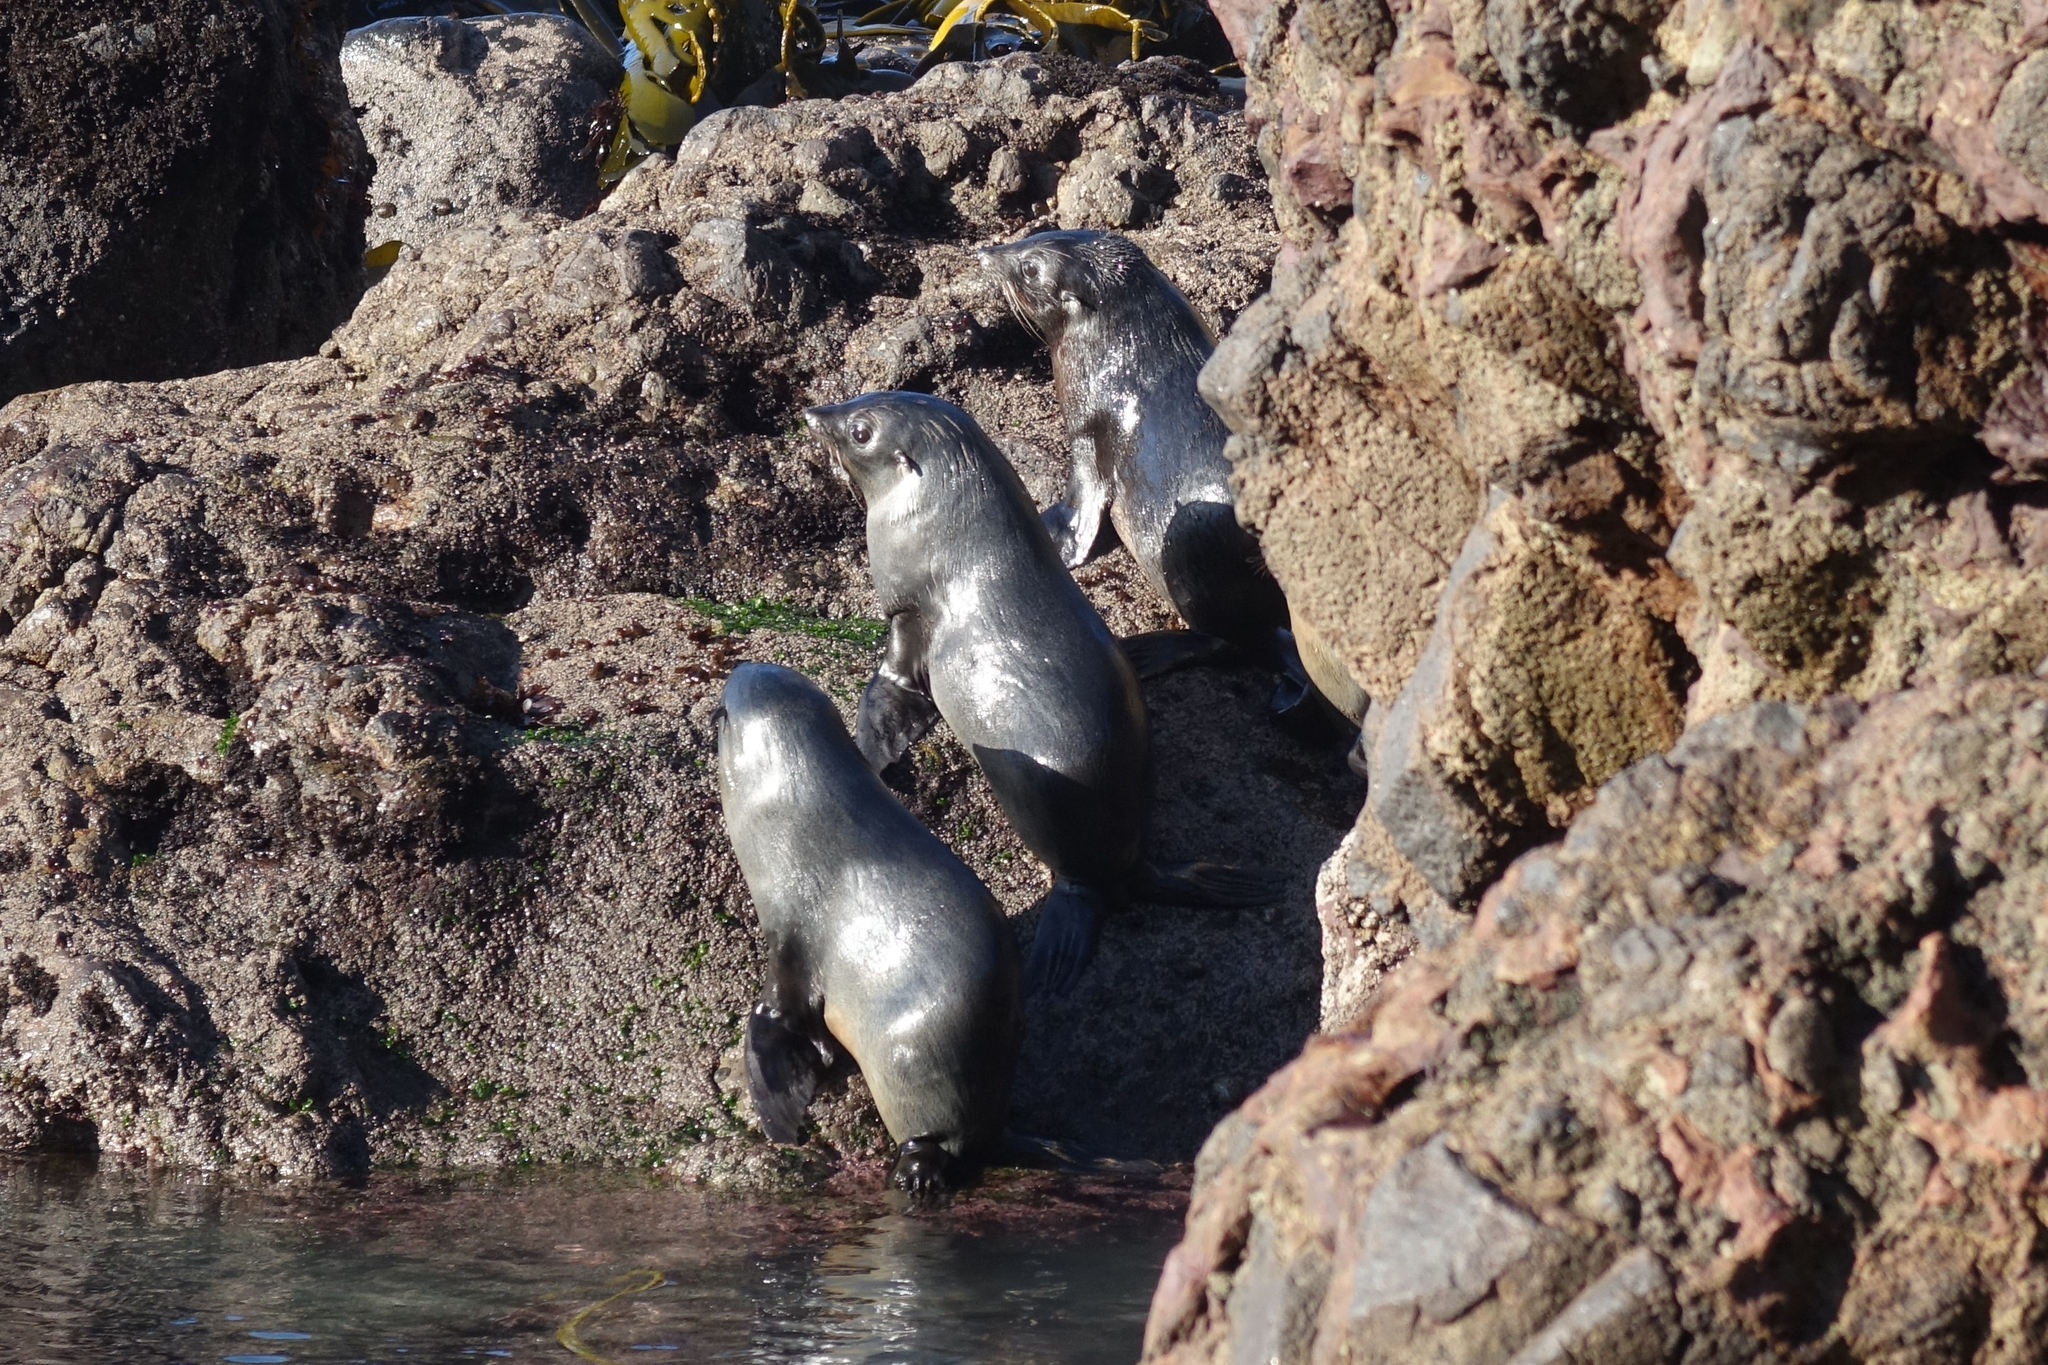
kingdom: Animalia
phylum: Chordata
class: Mammalia
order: Carnivora
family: Otariidae
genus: Arctocephalus
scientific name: Arctocephalus forsteri
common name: New zealand fur seal
